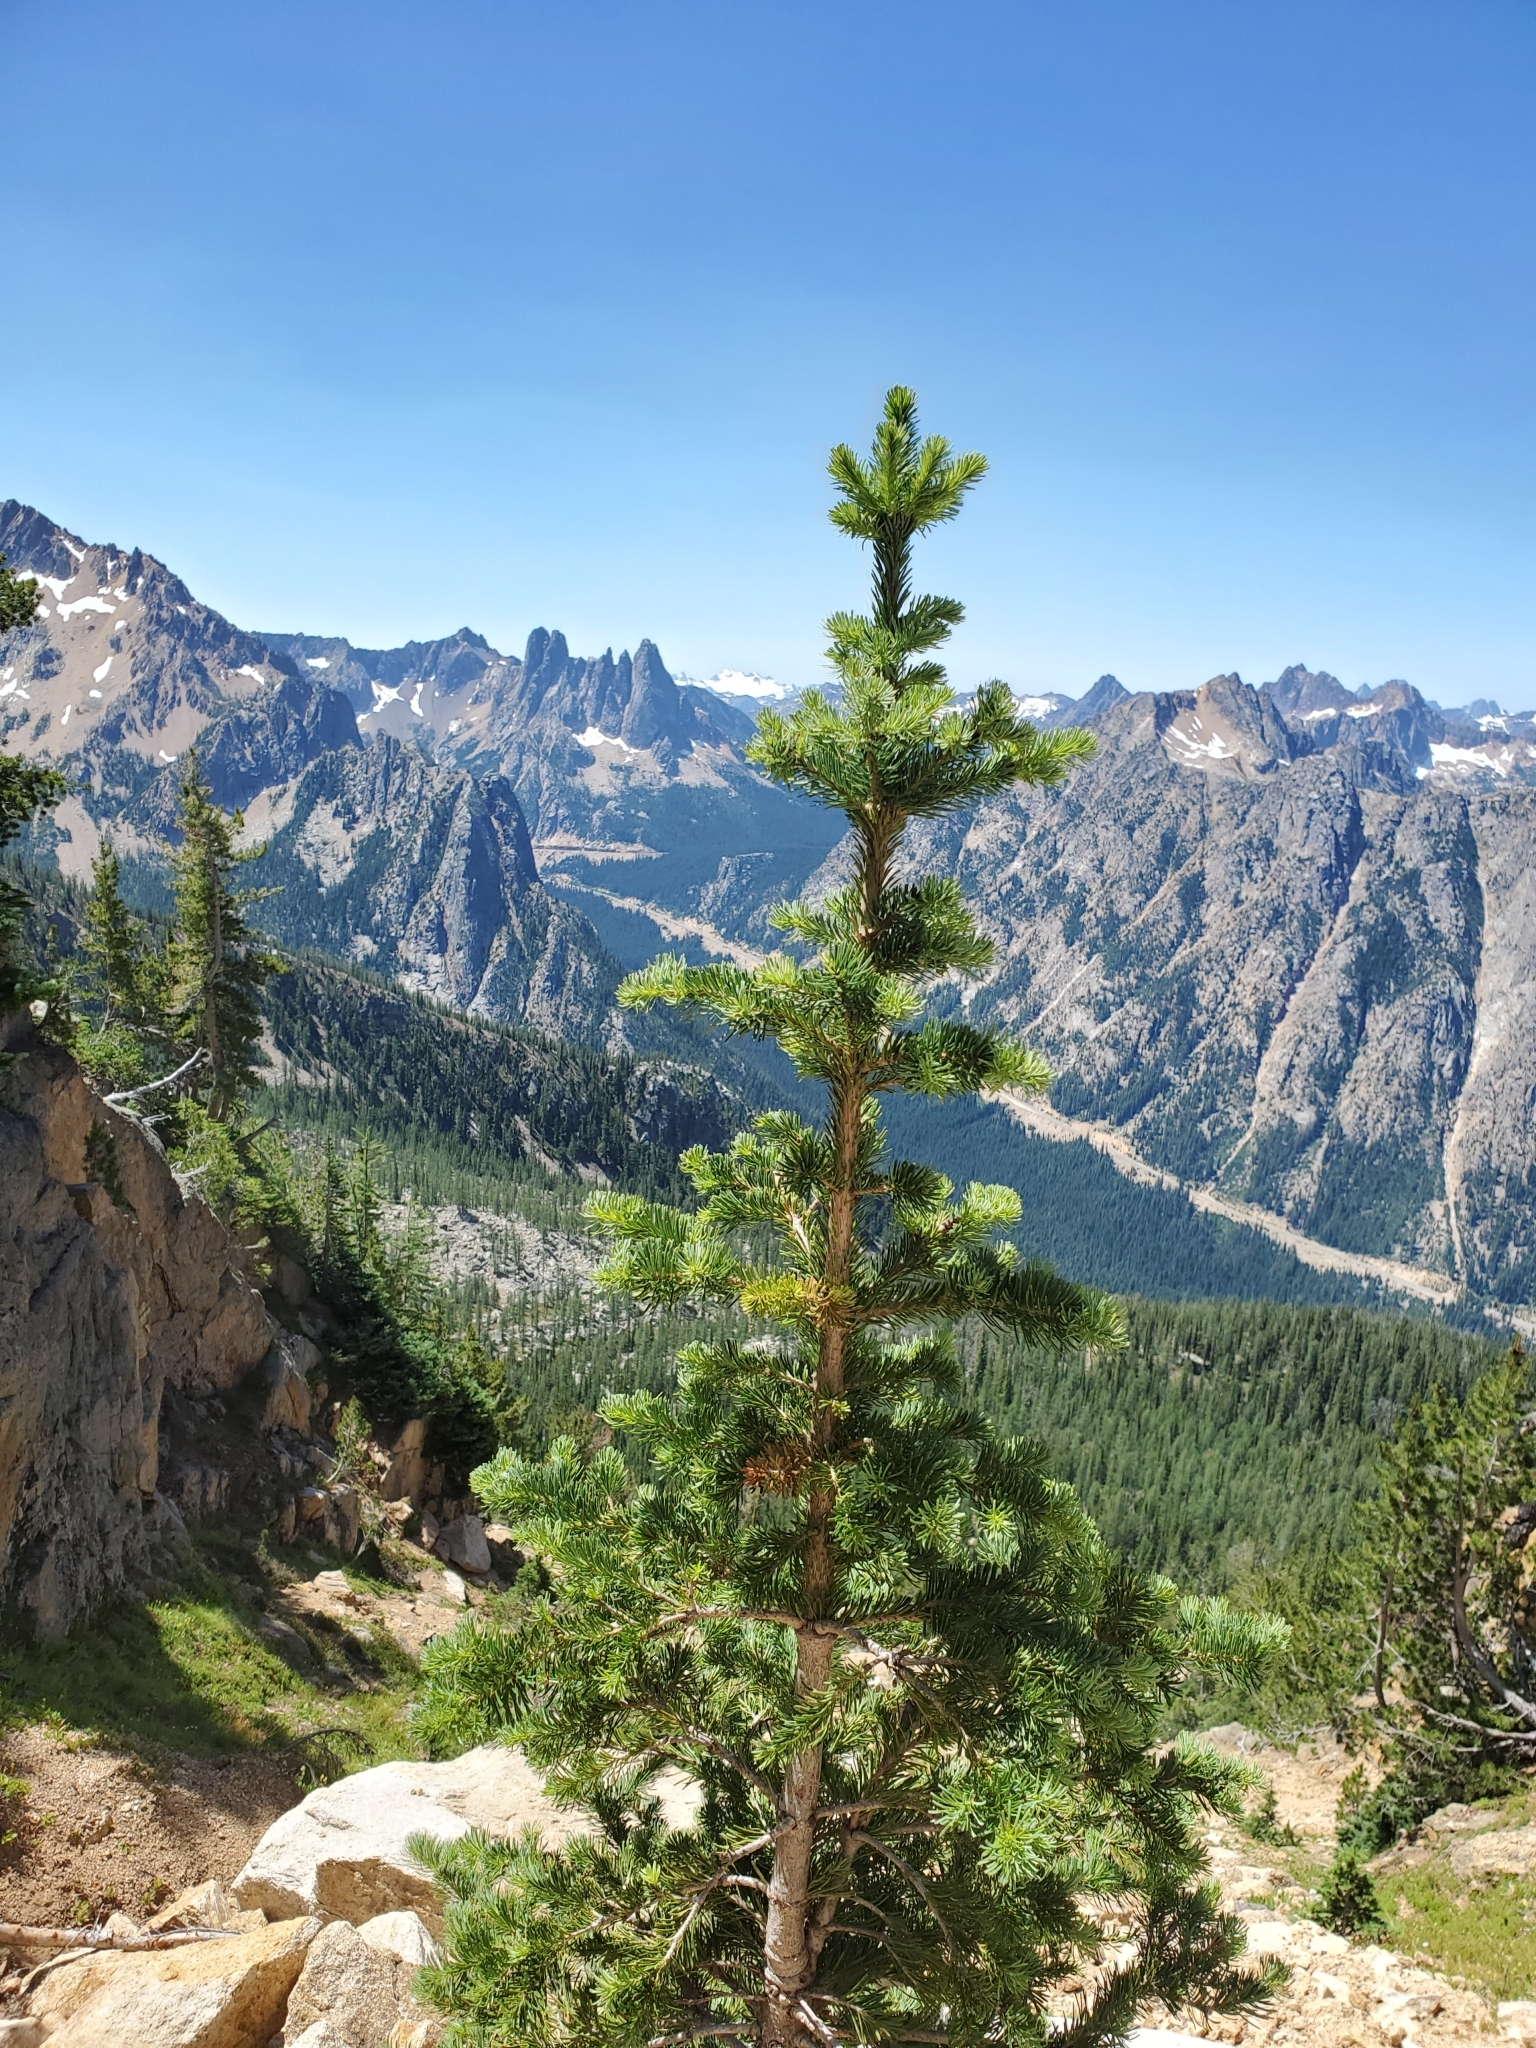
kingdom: Plantae
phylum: Tracheophyta
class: Pinopsida
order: Pinales
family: Pinaceae
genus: Abies
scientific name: Abies lasiocarpa
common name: Subalpine fir
